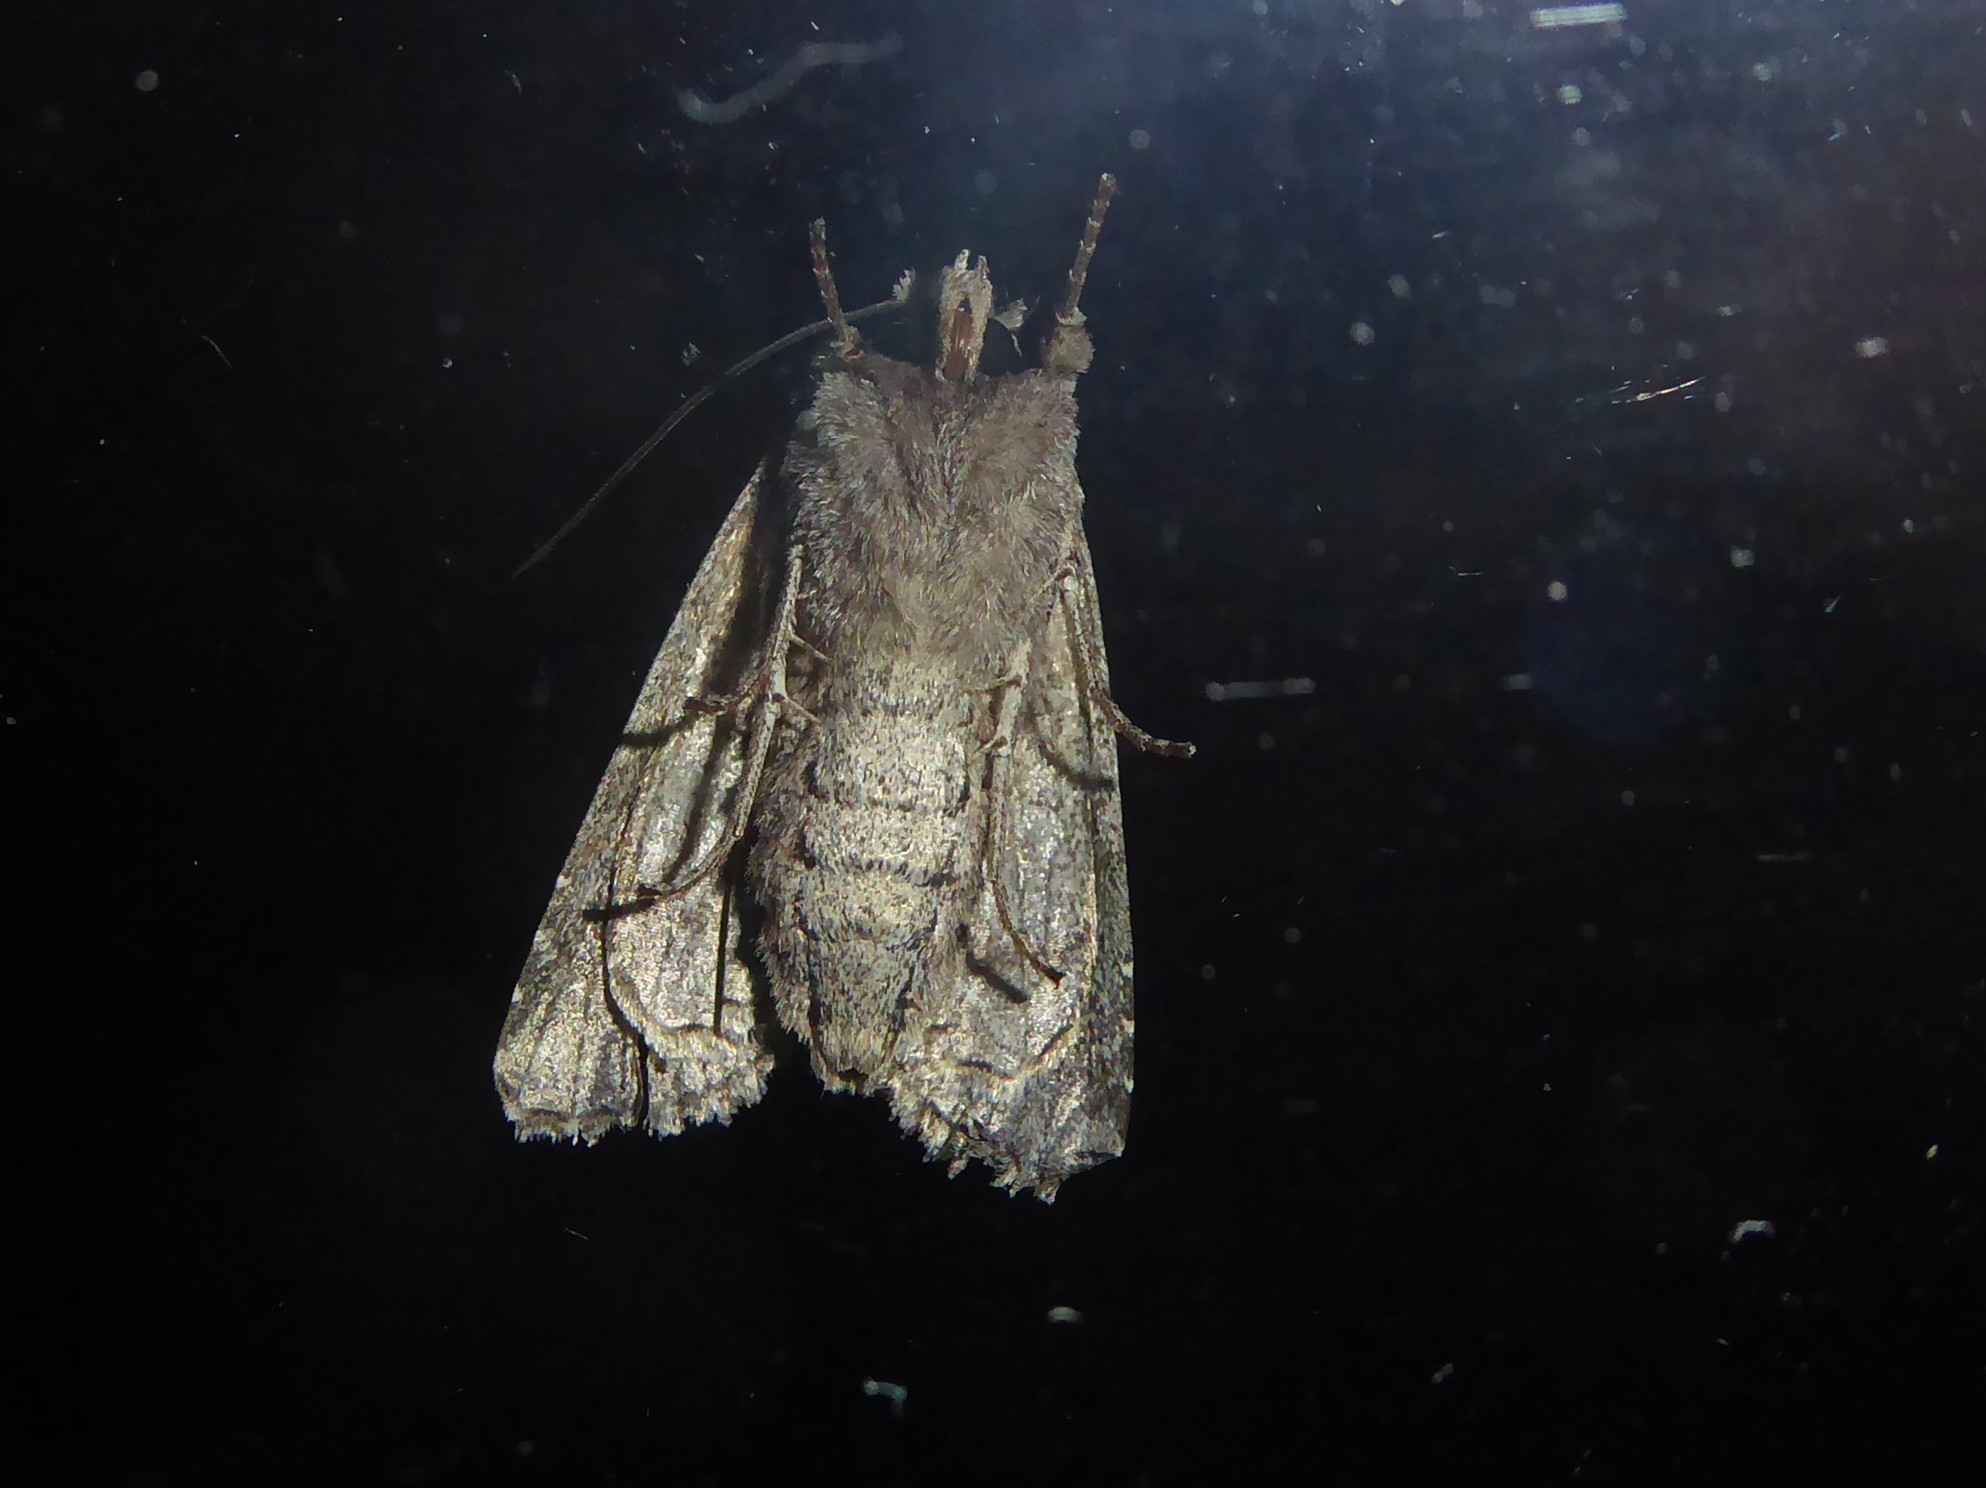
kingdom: Animalia
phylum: Arthropoda
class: Insecta
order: Lepidoptera
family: Noctuidae
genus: Ichneutica
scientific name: Ichneutica mutans
